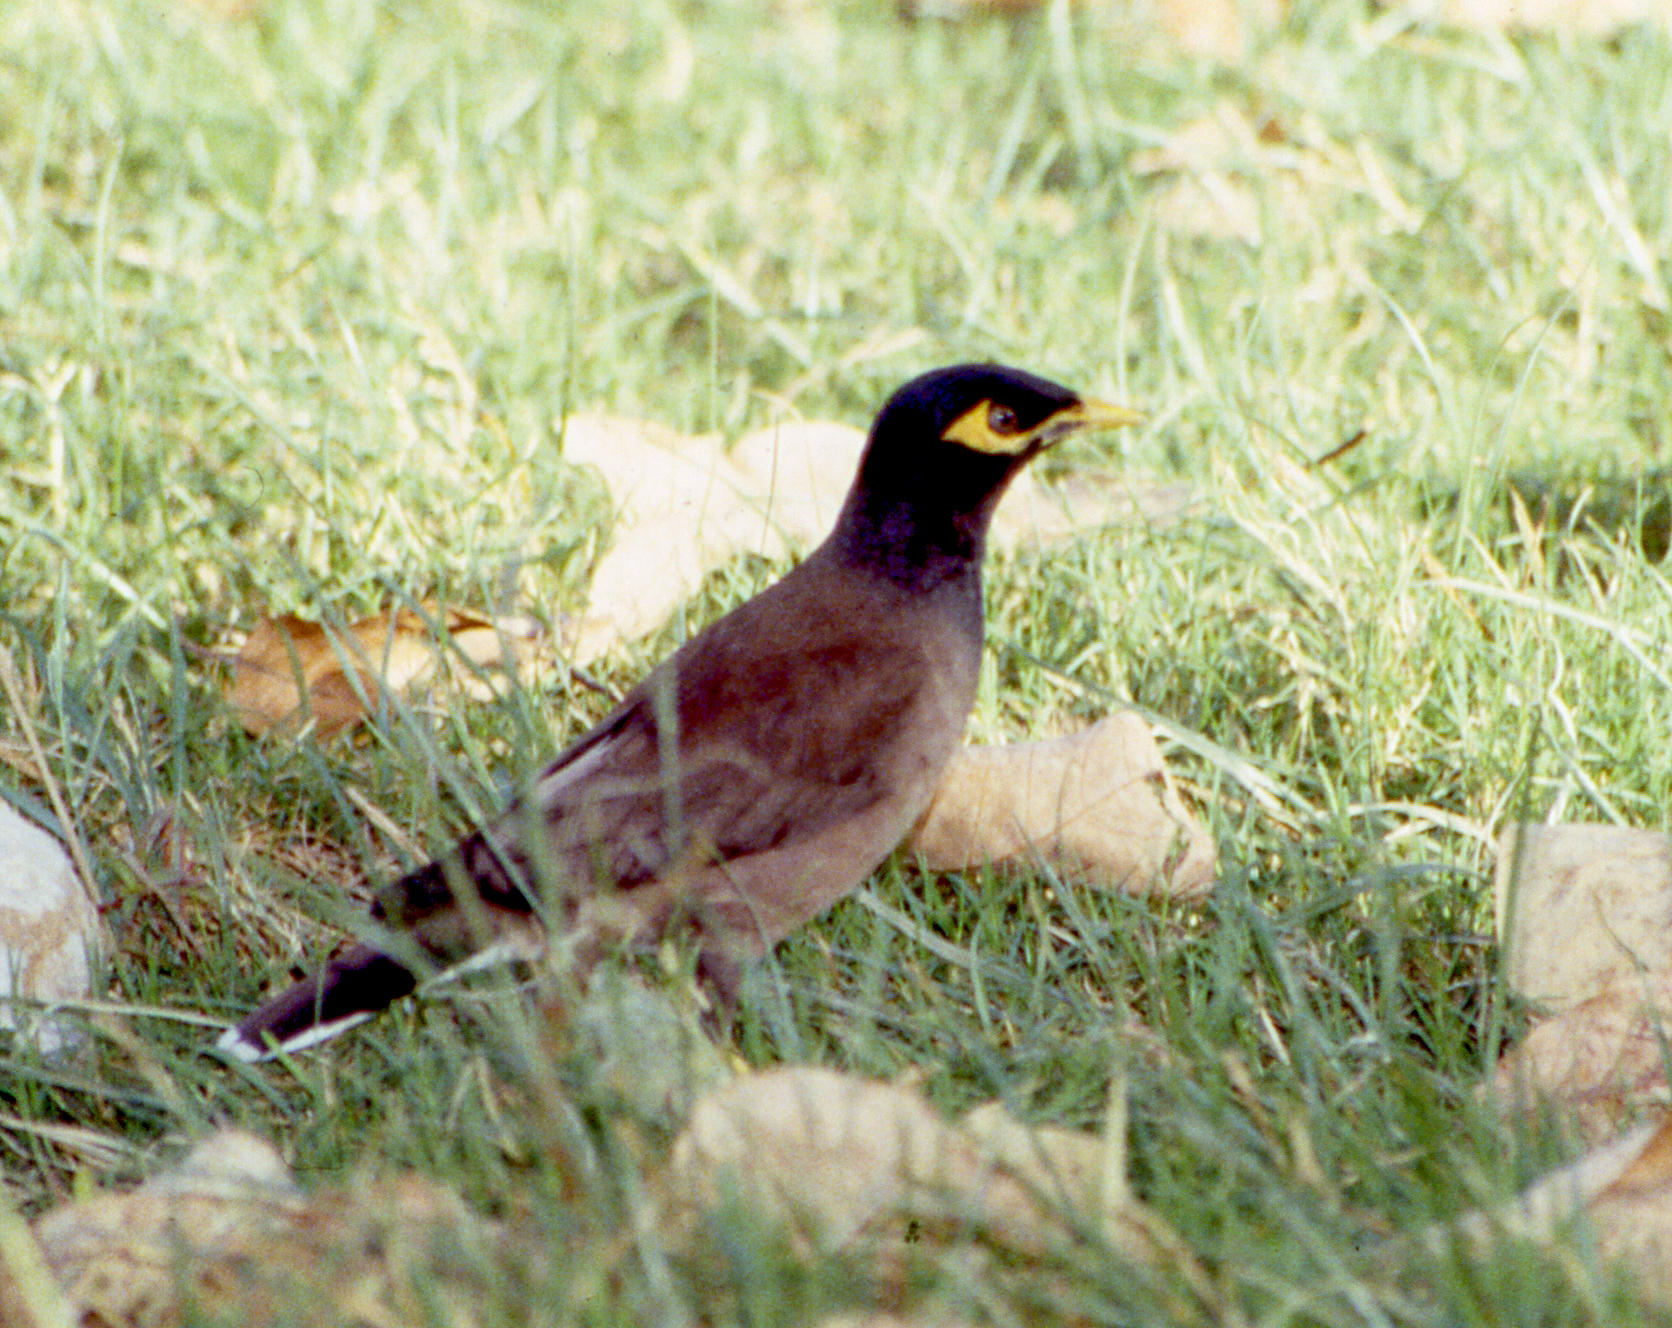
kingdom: Animalia
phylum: Chordata
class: Aves
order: Passeriformes
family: Sturnidae
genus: Acridotheres
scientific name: Acridotheres tristis
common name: Common myna
